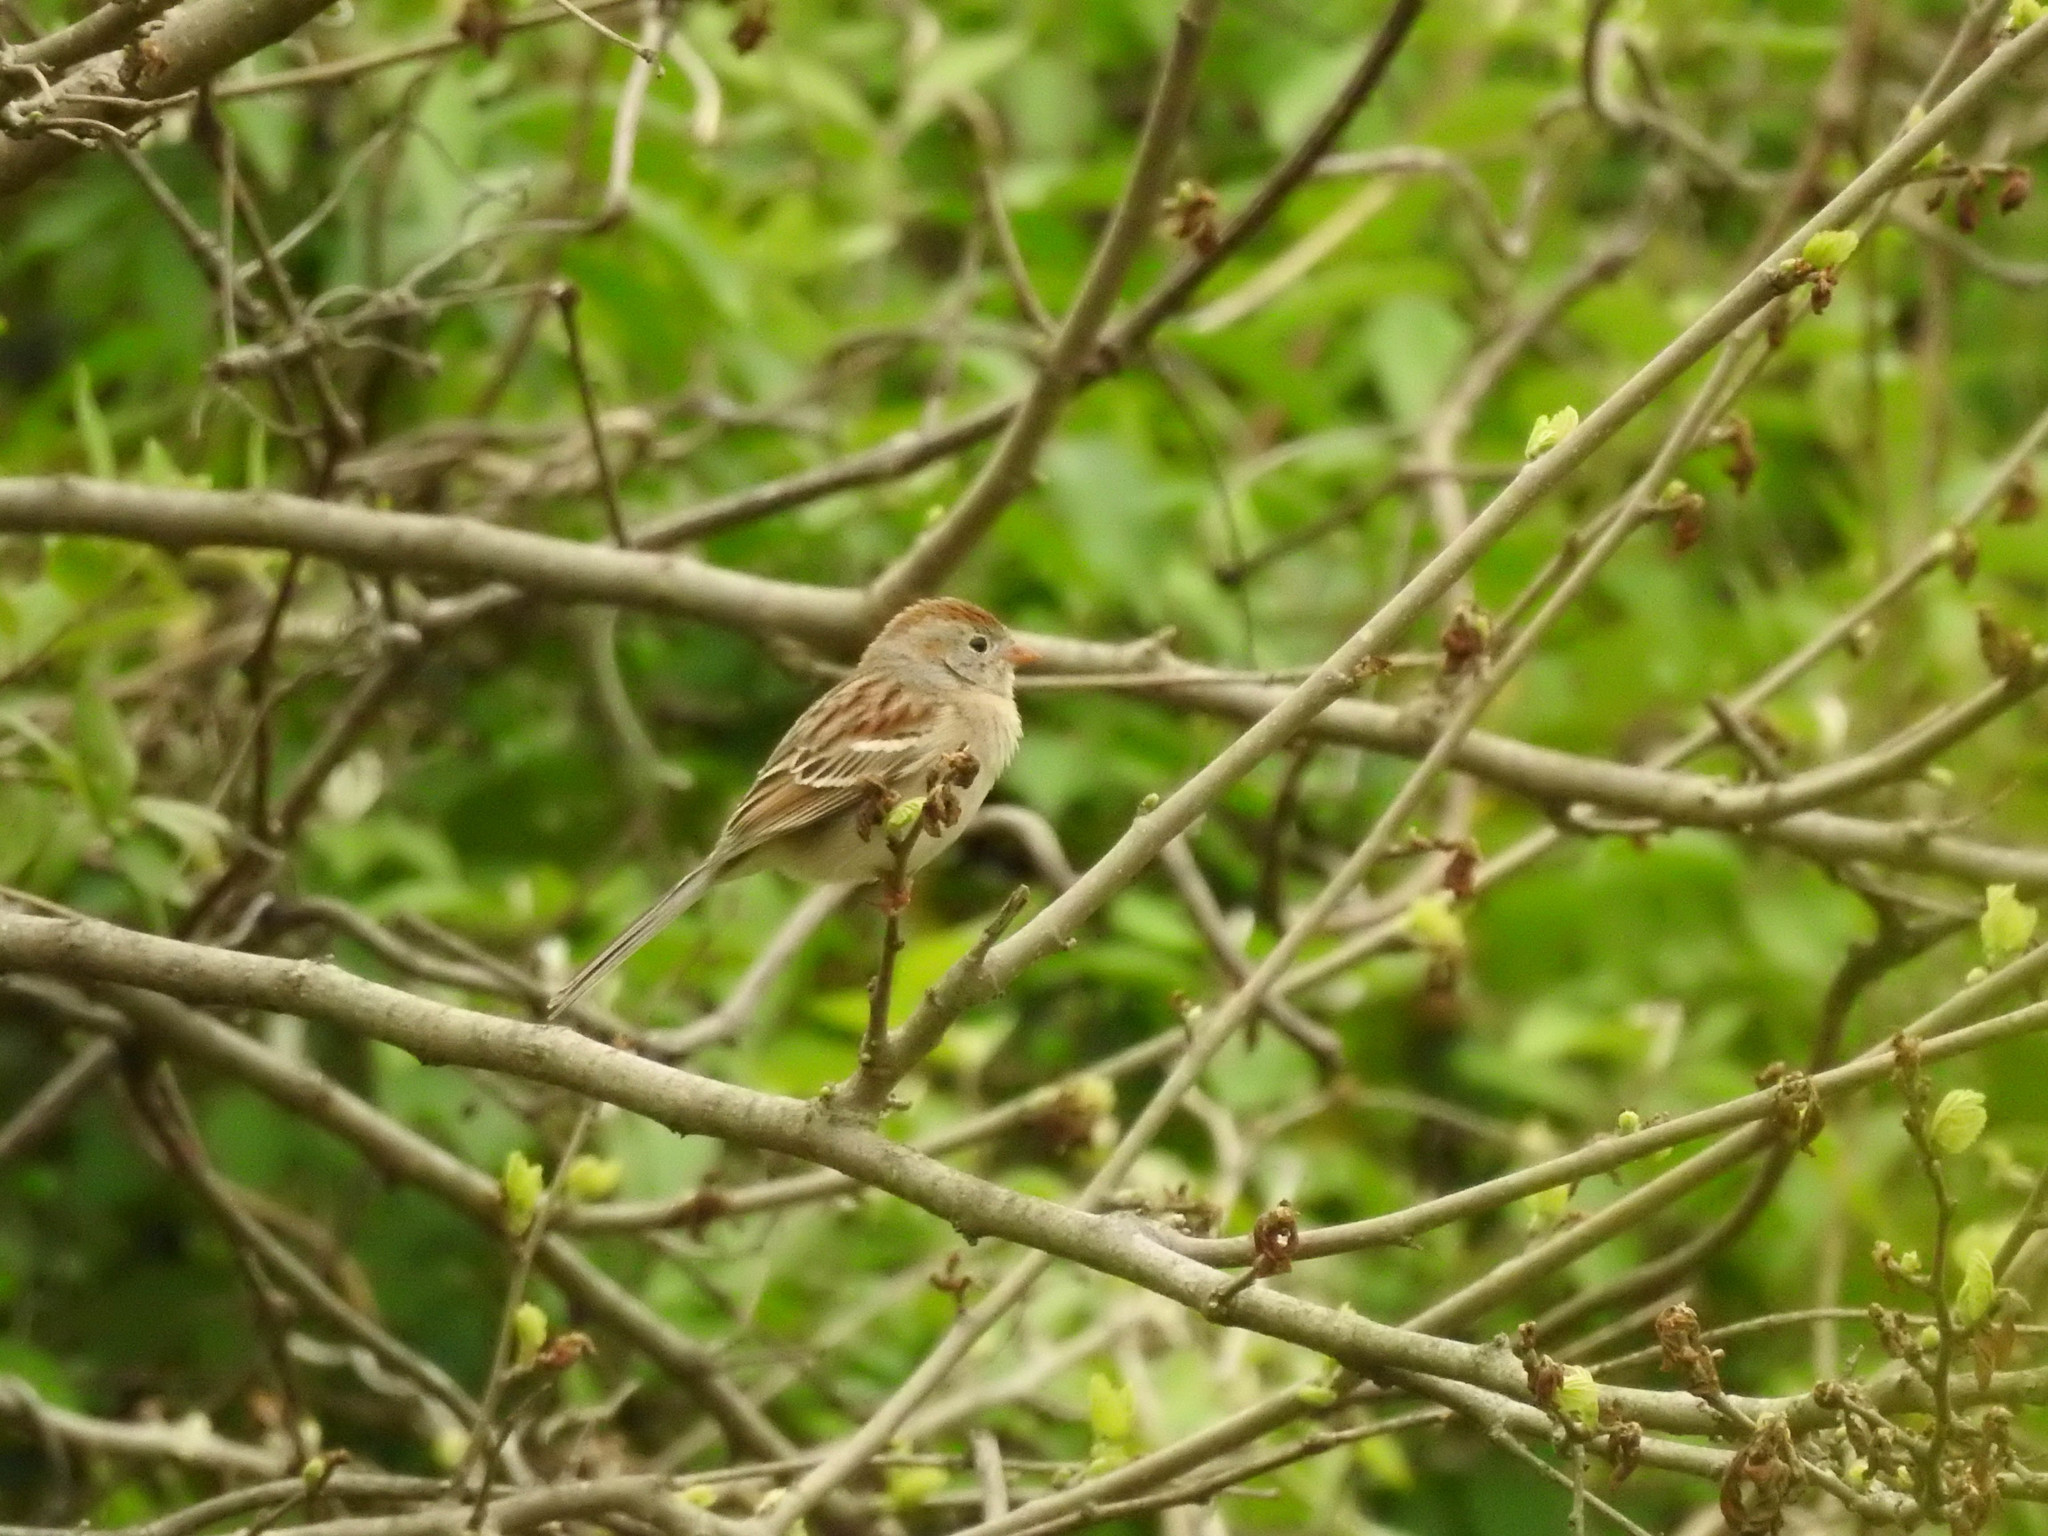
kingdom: Animalia
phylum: Chordata
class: Aves
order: Passeriformes
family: Passerellidae
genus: Spizella
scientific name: Spizella pusilla
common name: Field sparrow
